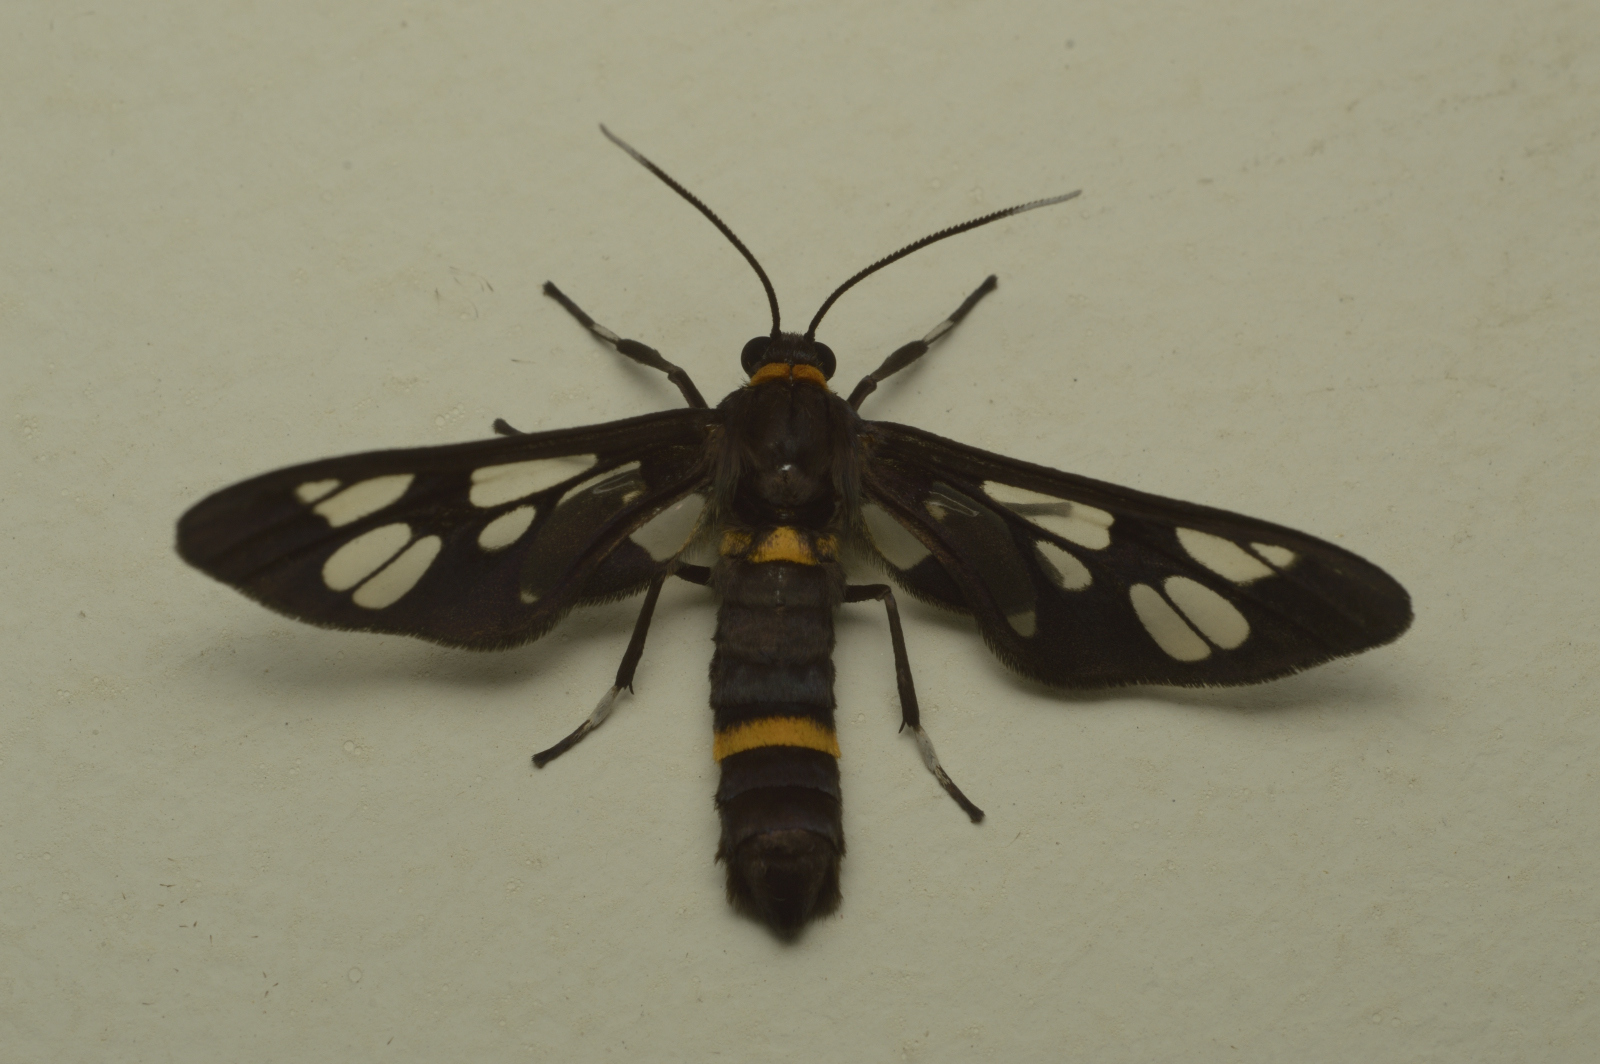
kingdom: Animalia
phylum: Arthropoda
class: Insecta
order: Lepidoptera
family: Erebidae
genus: Syntomoides
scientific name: Syntomoides imaon
